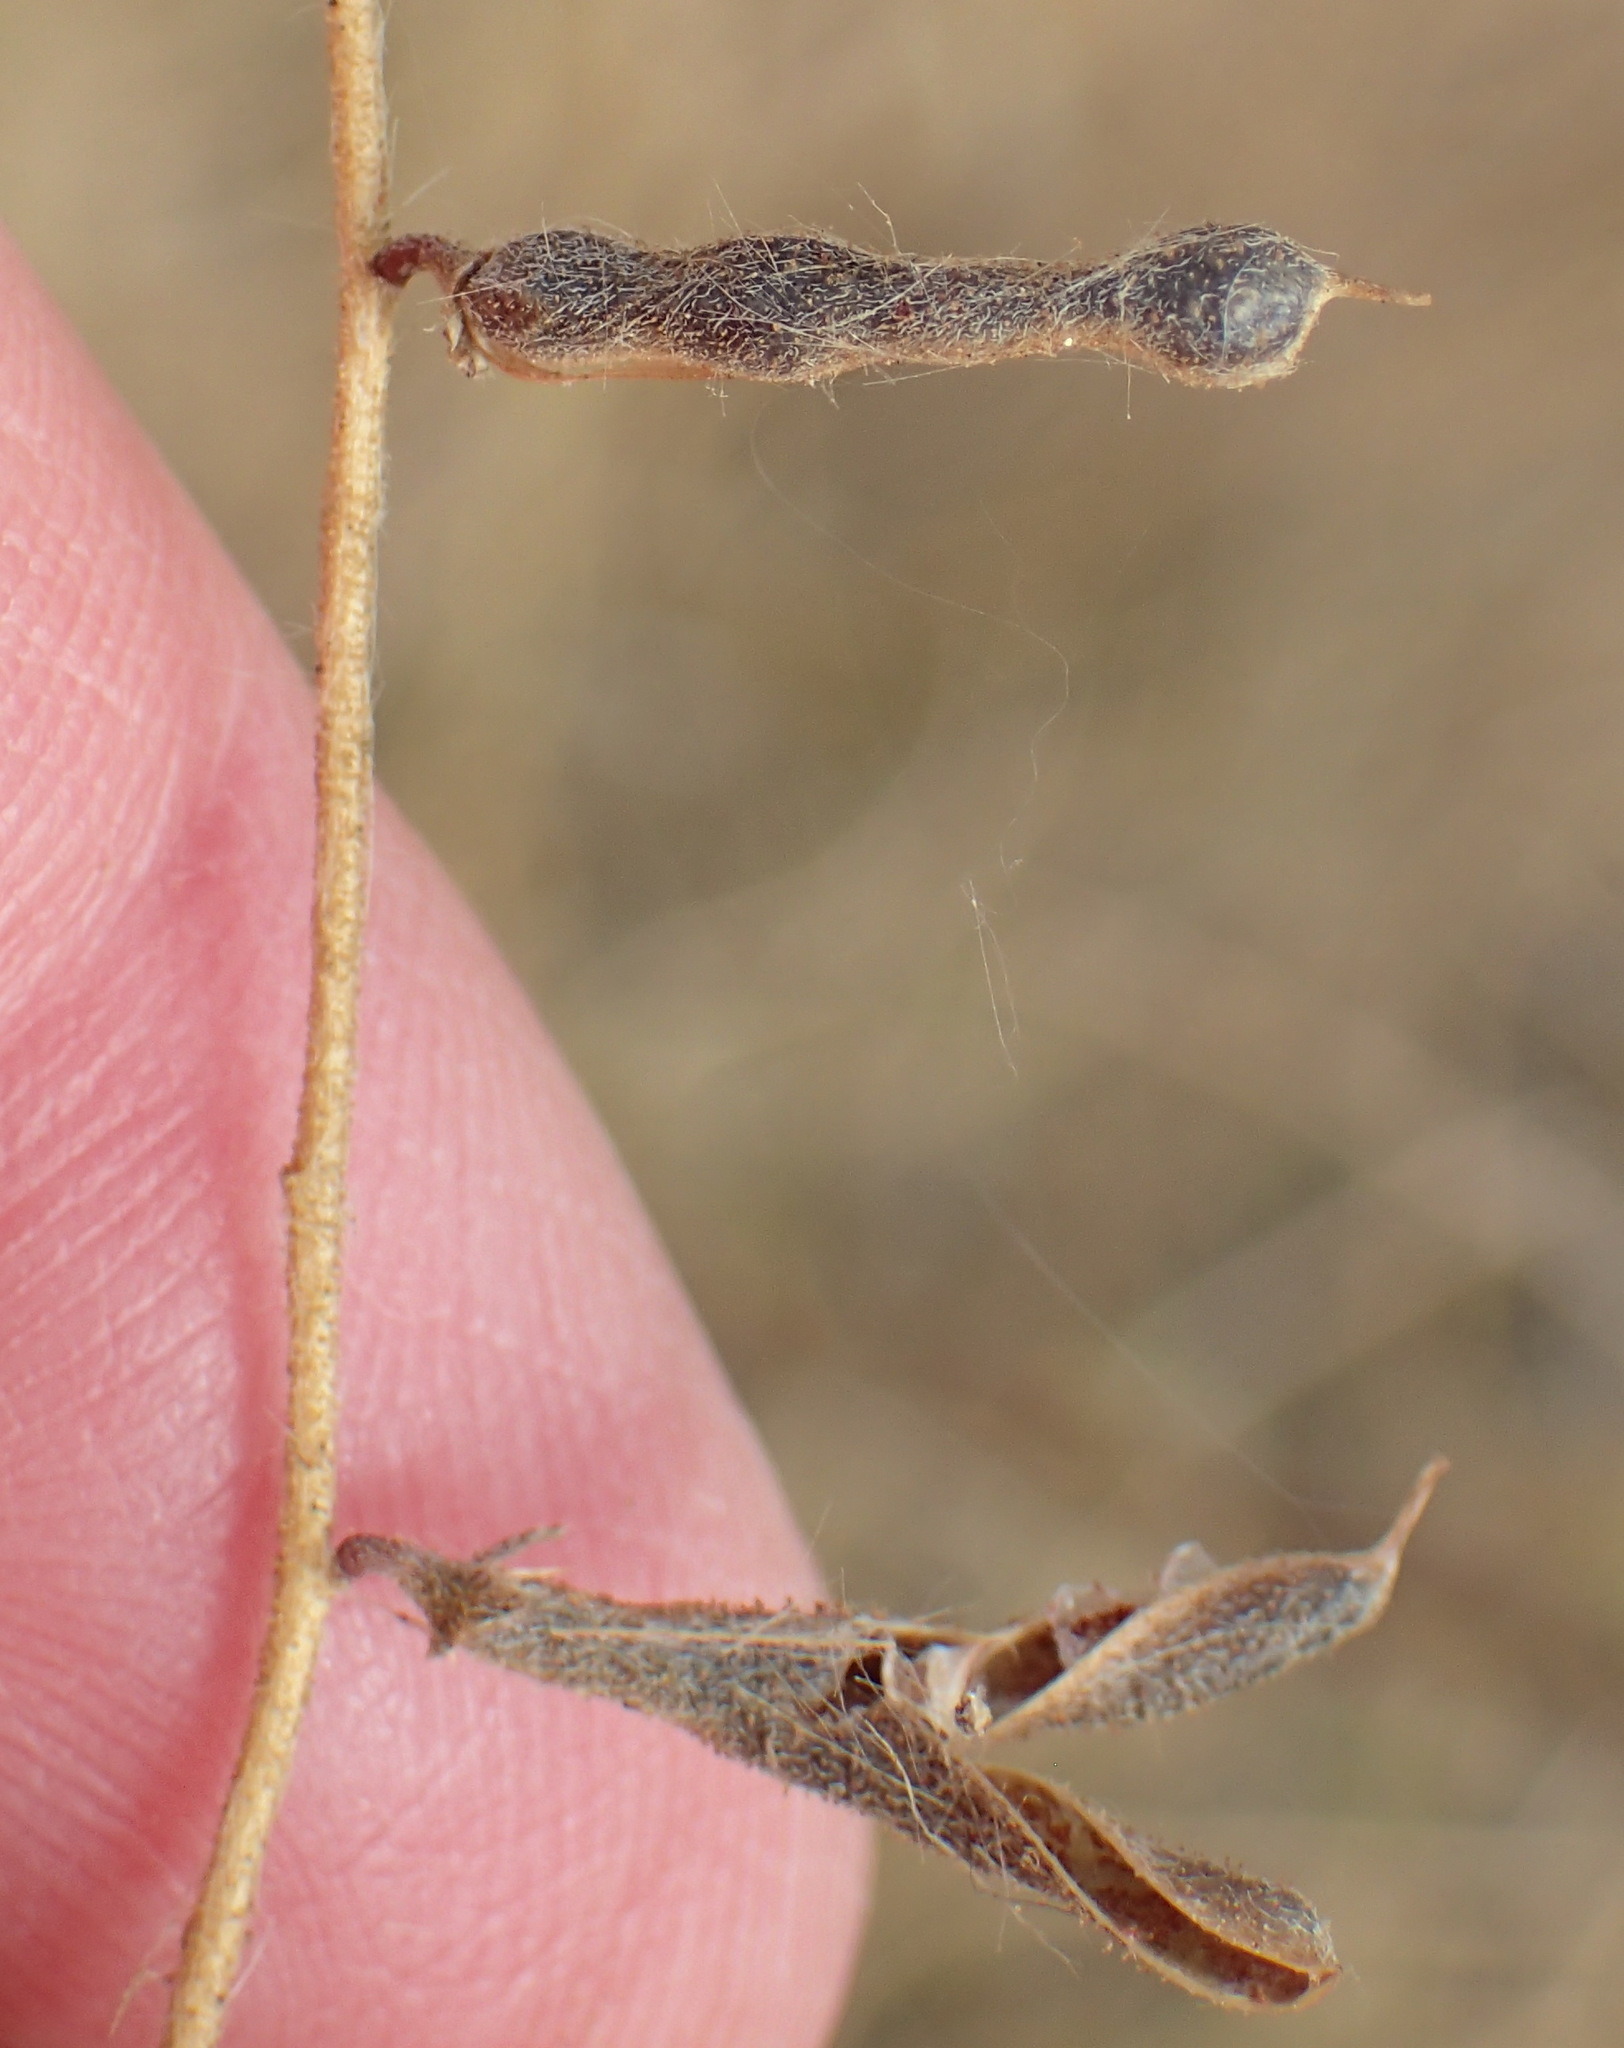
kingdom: Plantae
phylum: Tracheophyta
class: Magnoliopsida
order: Fabales
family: Fabaceae
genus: Indigofera
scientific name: Indigofera heterotricha
